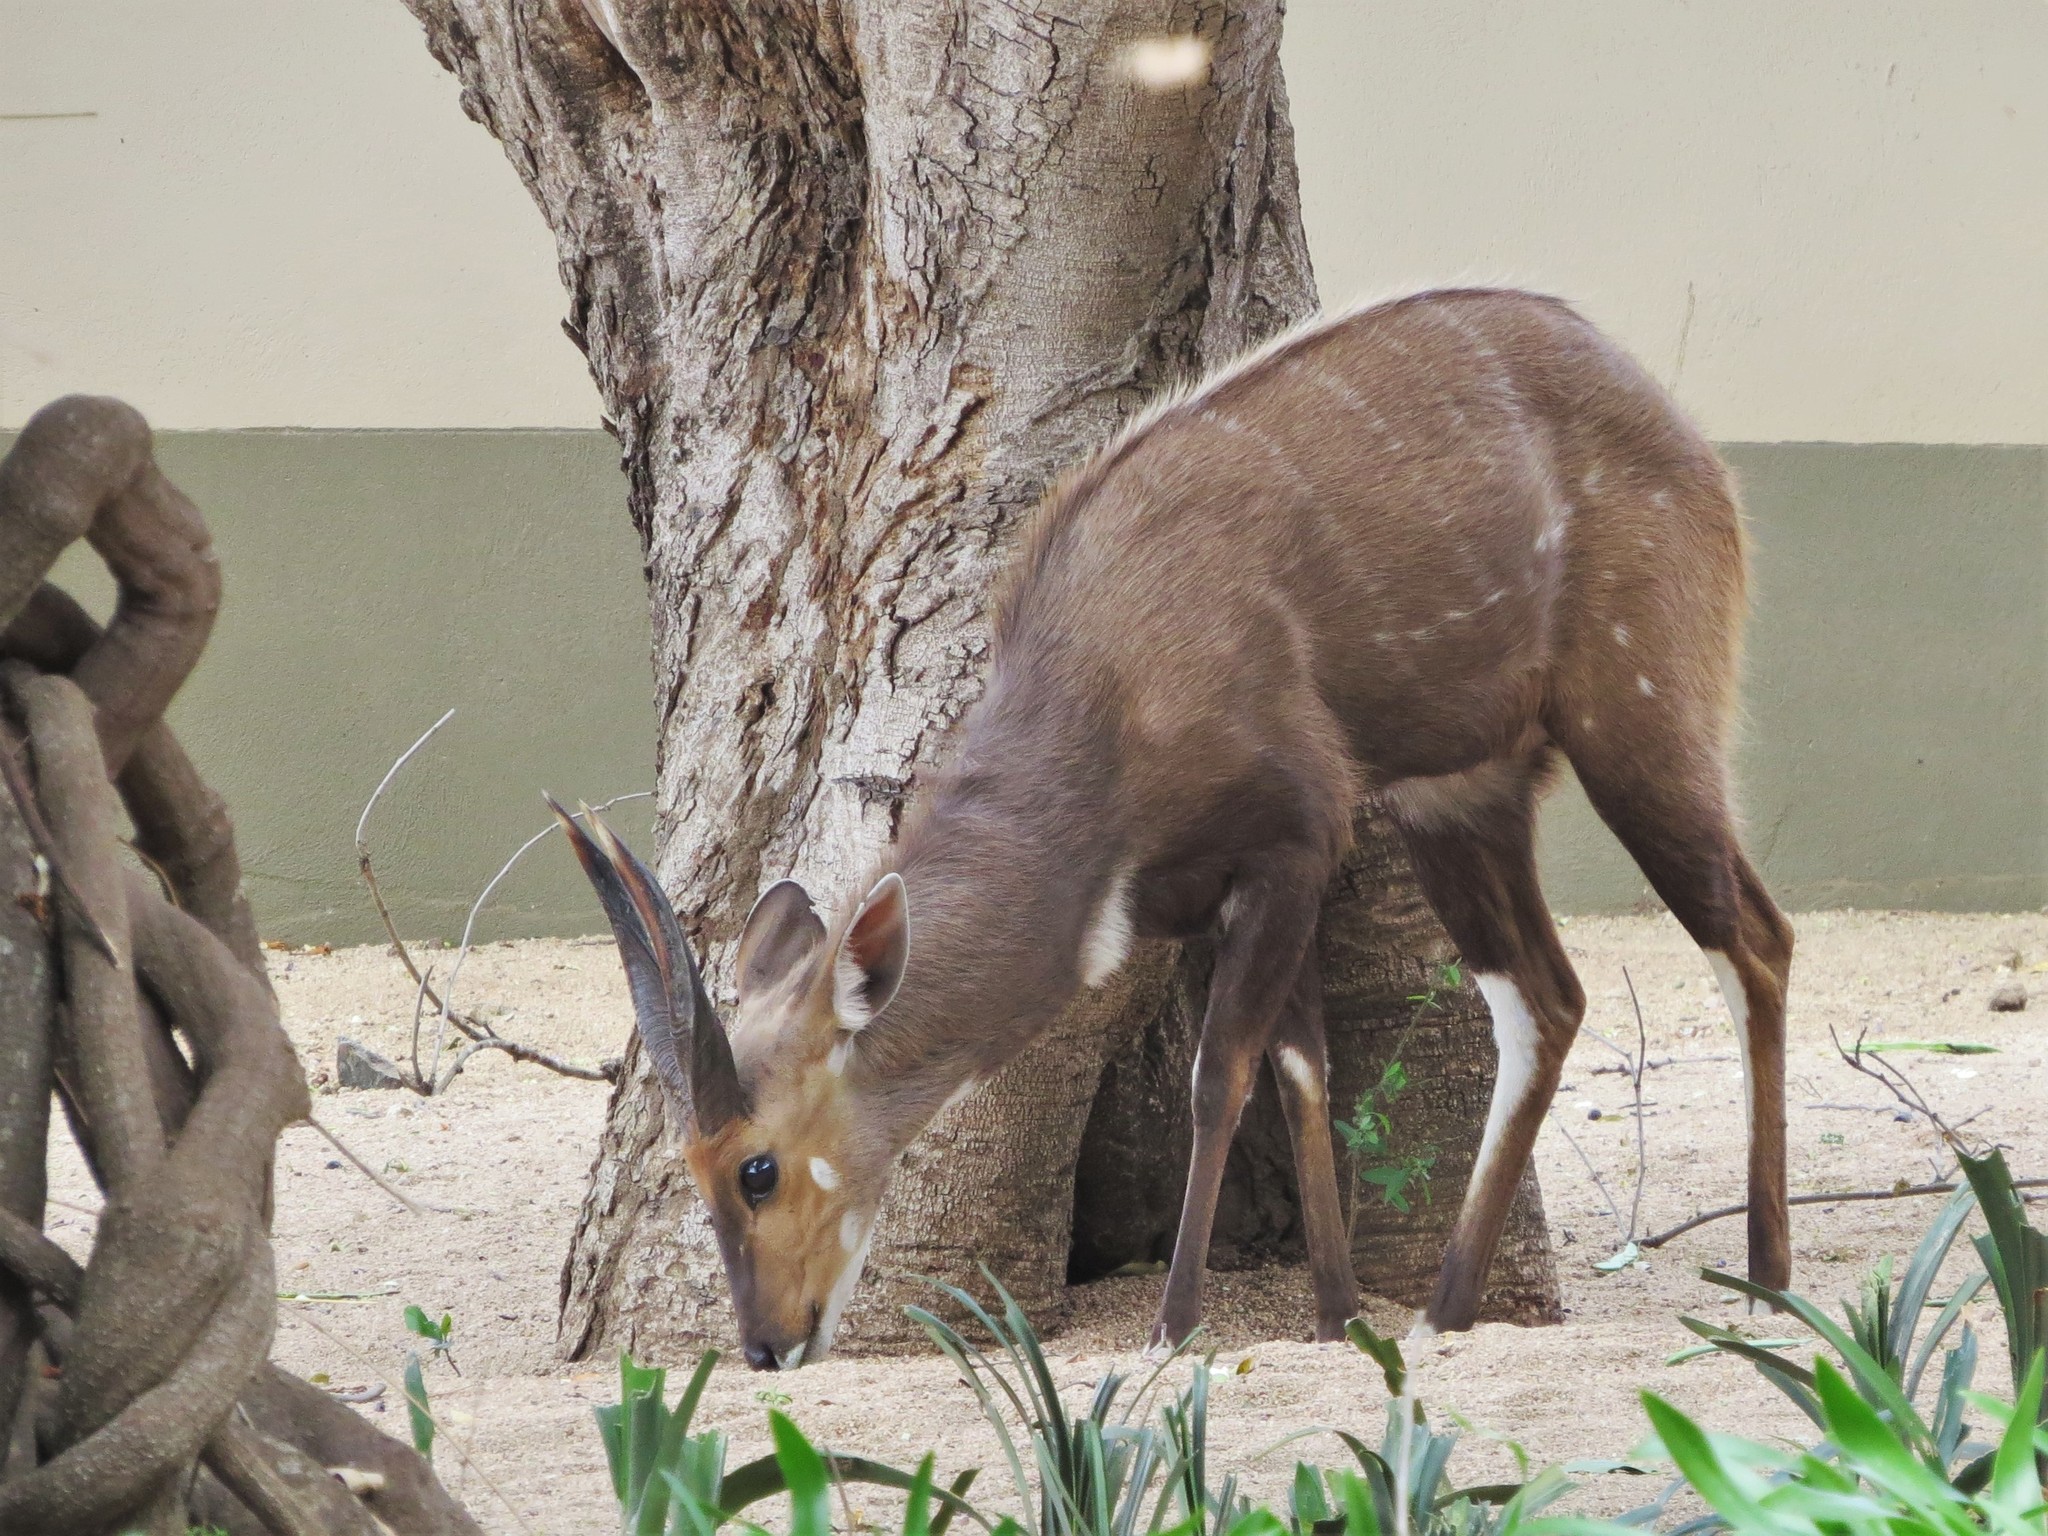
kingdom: Animalia
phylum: Chordata
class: Mammalia
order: Artiodactyla
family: Bovidae
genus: Tragelaphus
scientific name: Tragelaphus scriptus
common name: Bushbuck
